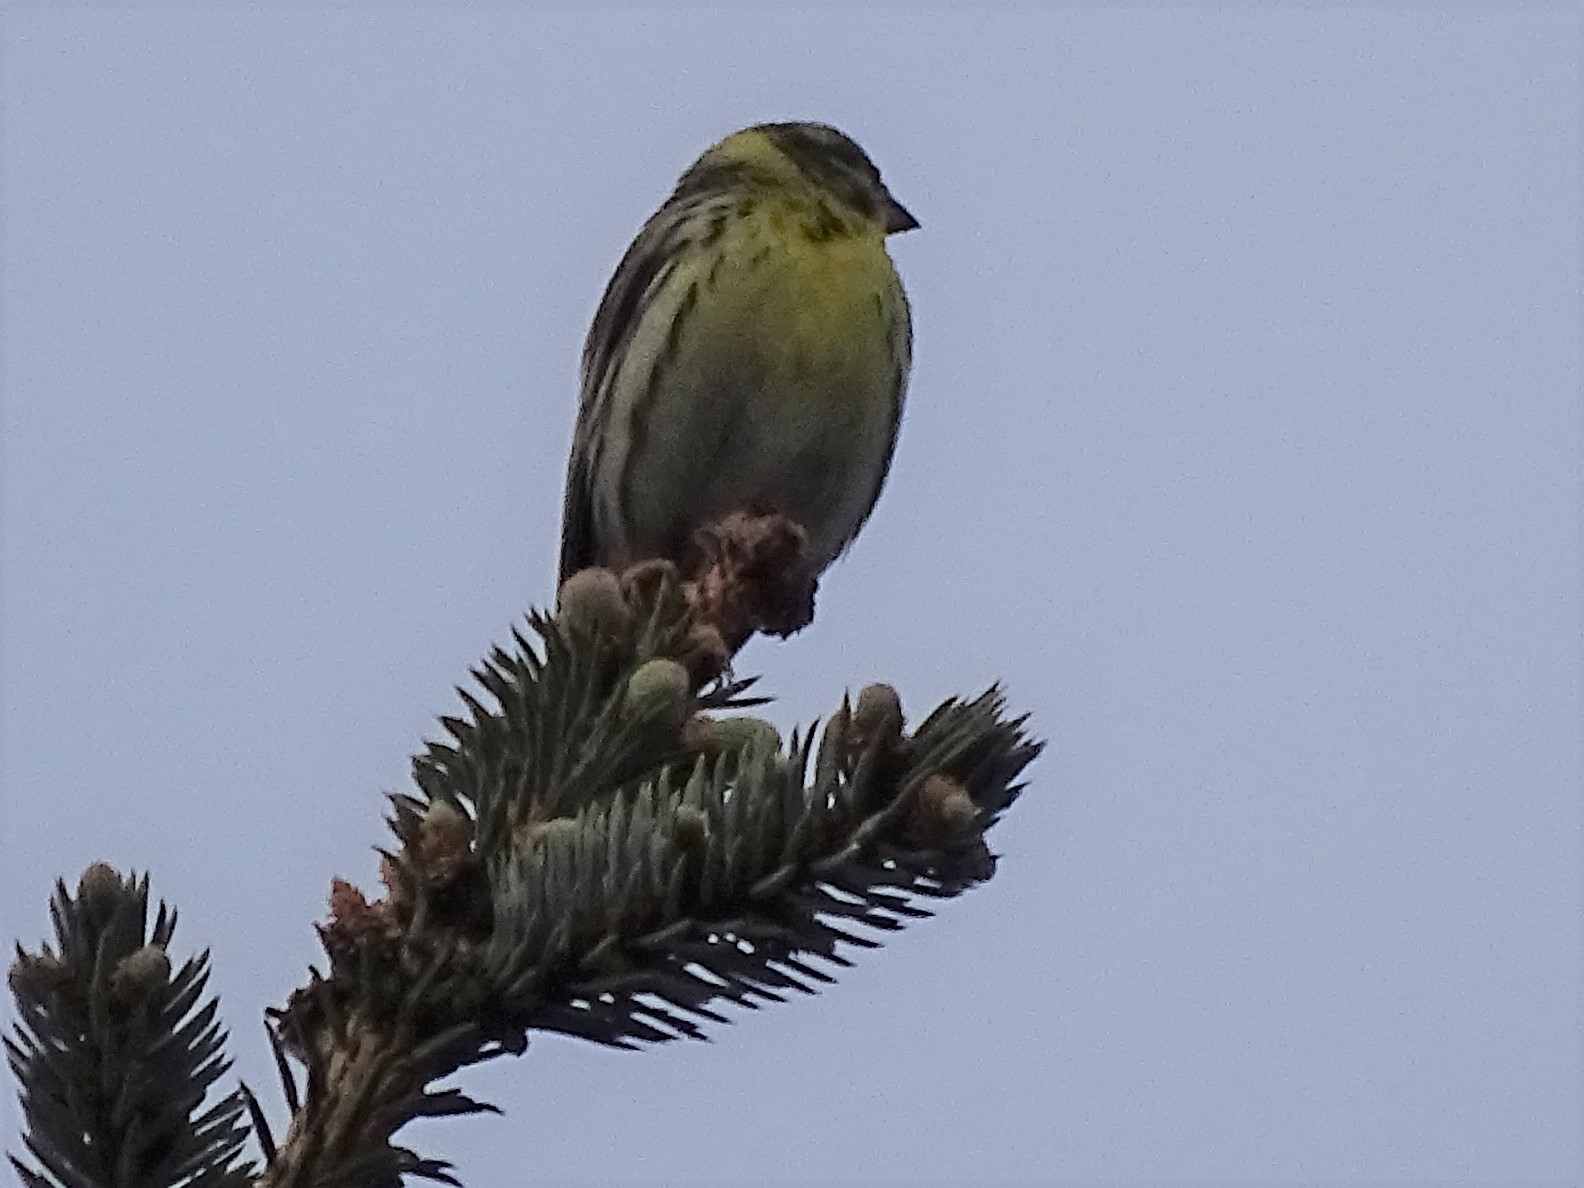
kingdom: Animalia
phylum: Chordata
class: Aves
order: Passeriformes
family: Fringillidae
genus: Serinus
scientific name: Serinus serinus
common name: European serin
